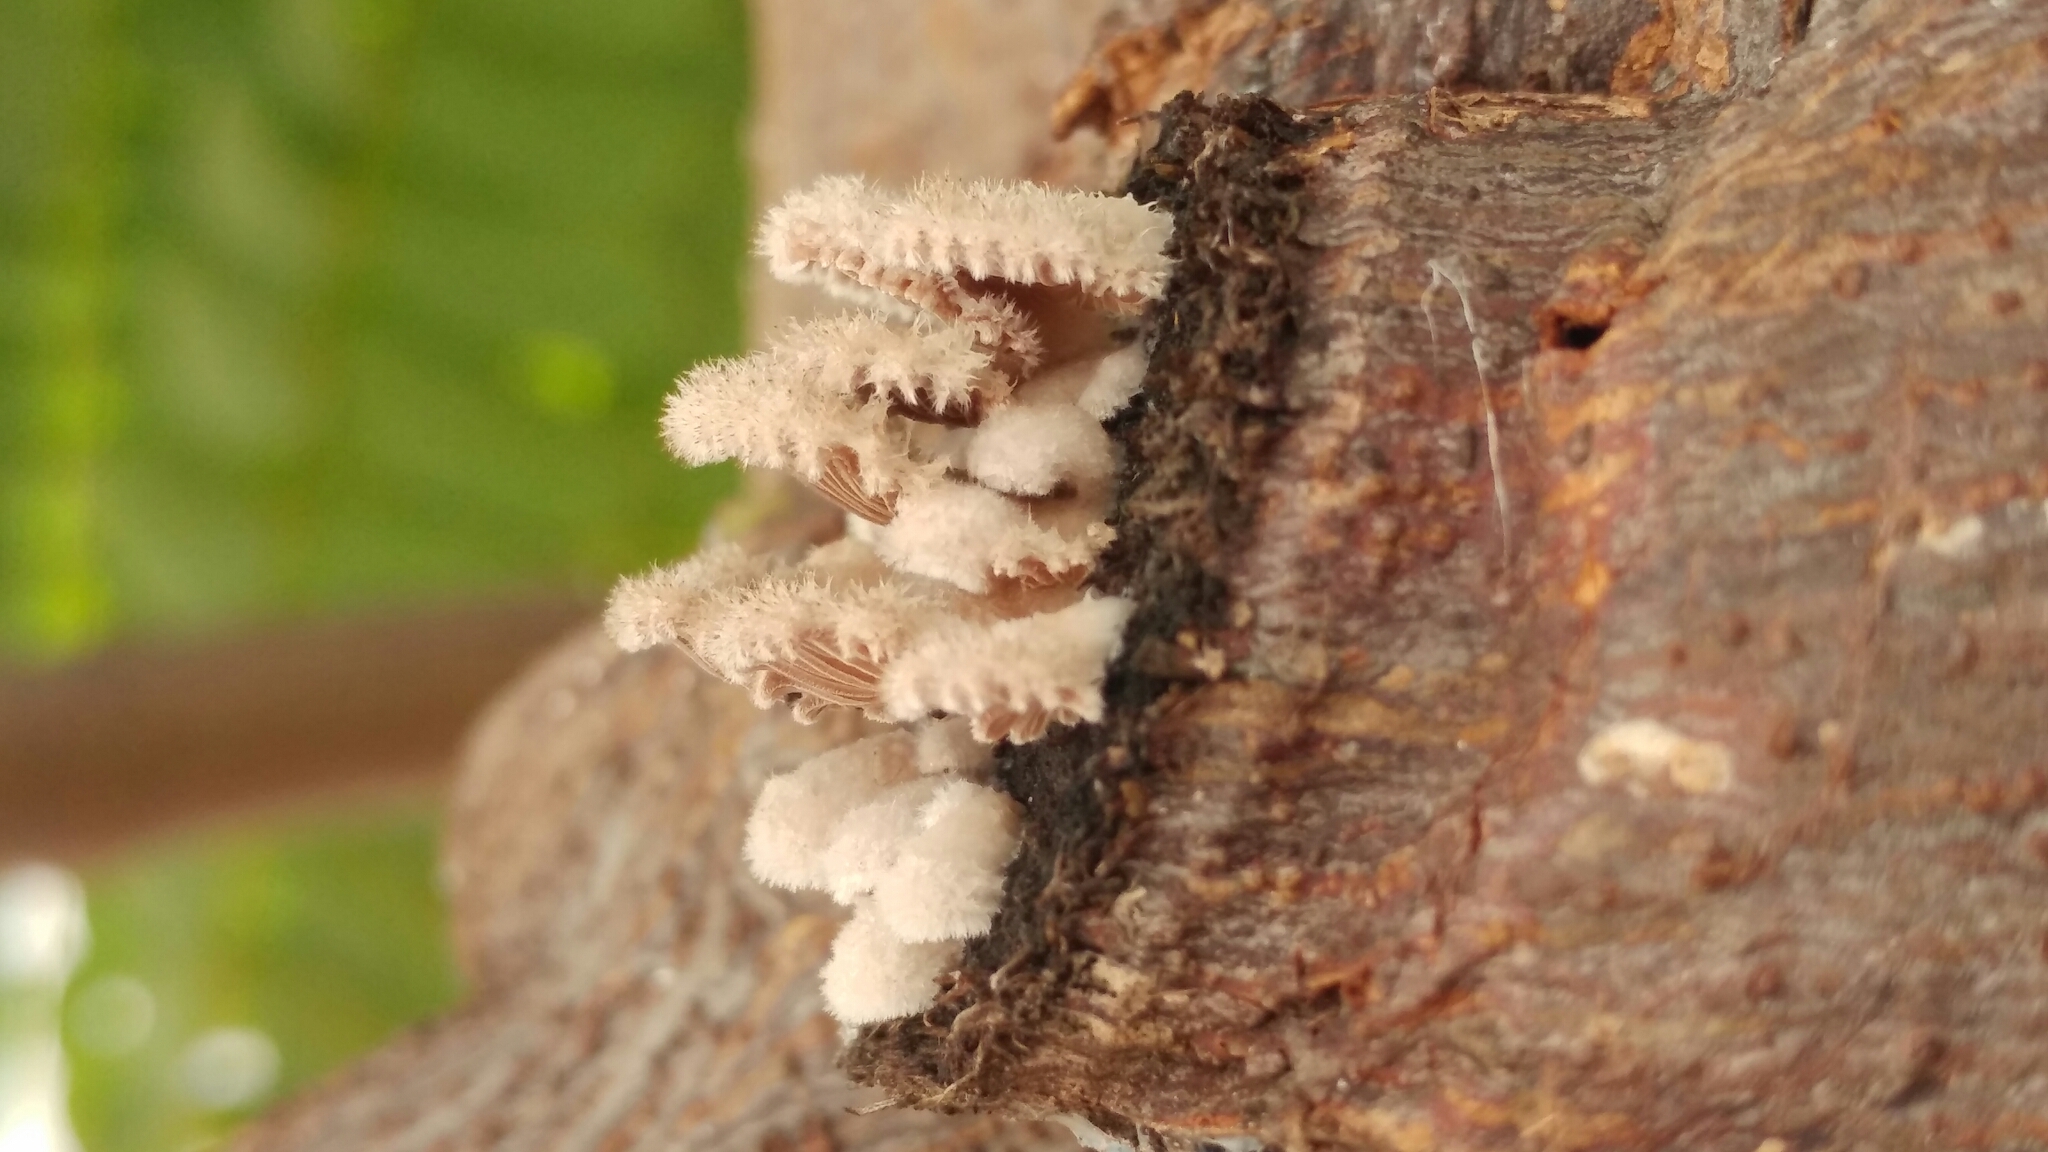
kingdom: Fungi
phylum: Basidiomycota
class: Agaricomycetes
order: Agaricales
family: Schizophyllaceae
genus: Schizophyllum
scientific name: Schizophyllum commune
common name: Common porecrust
